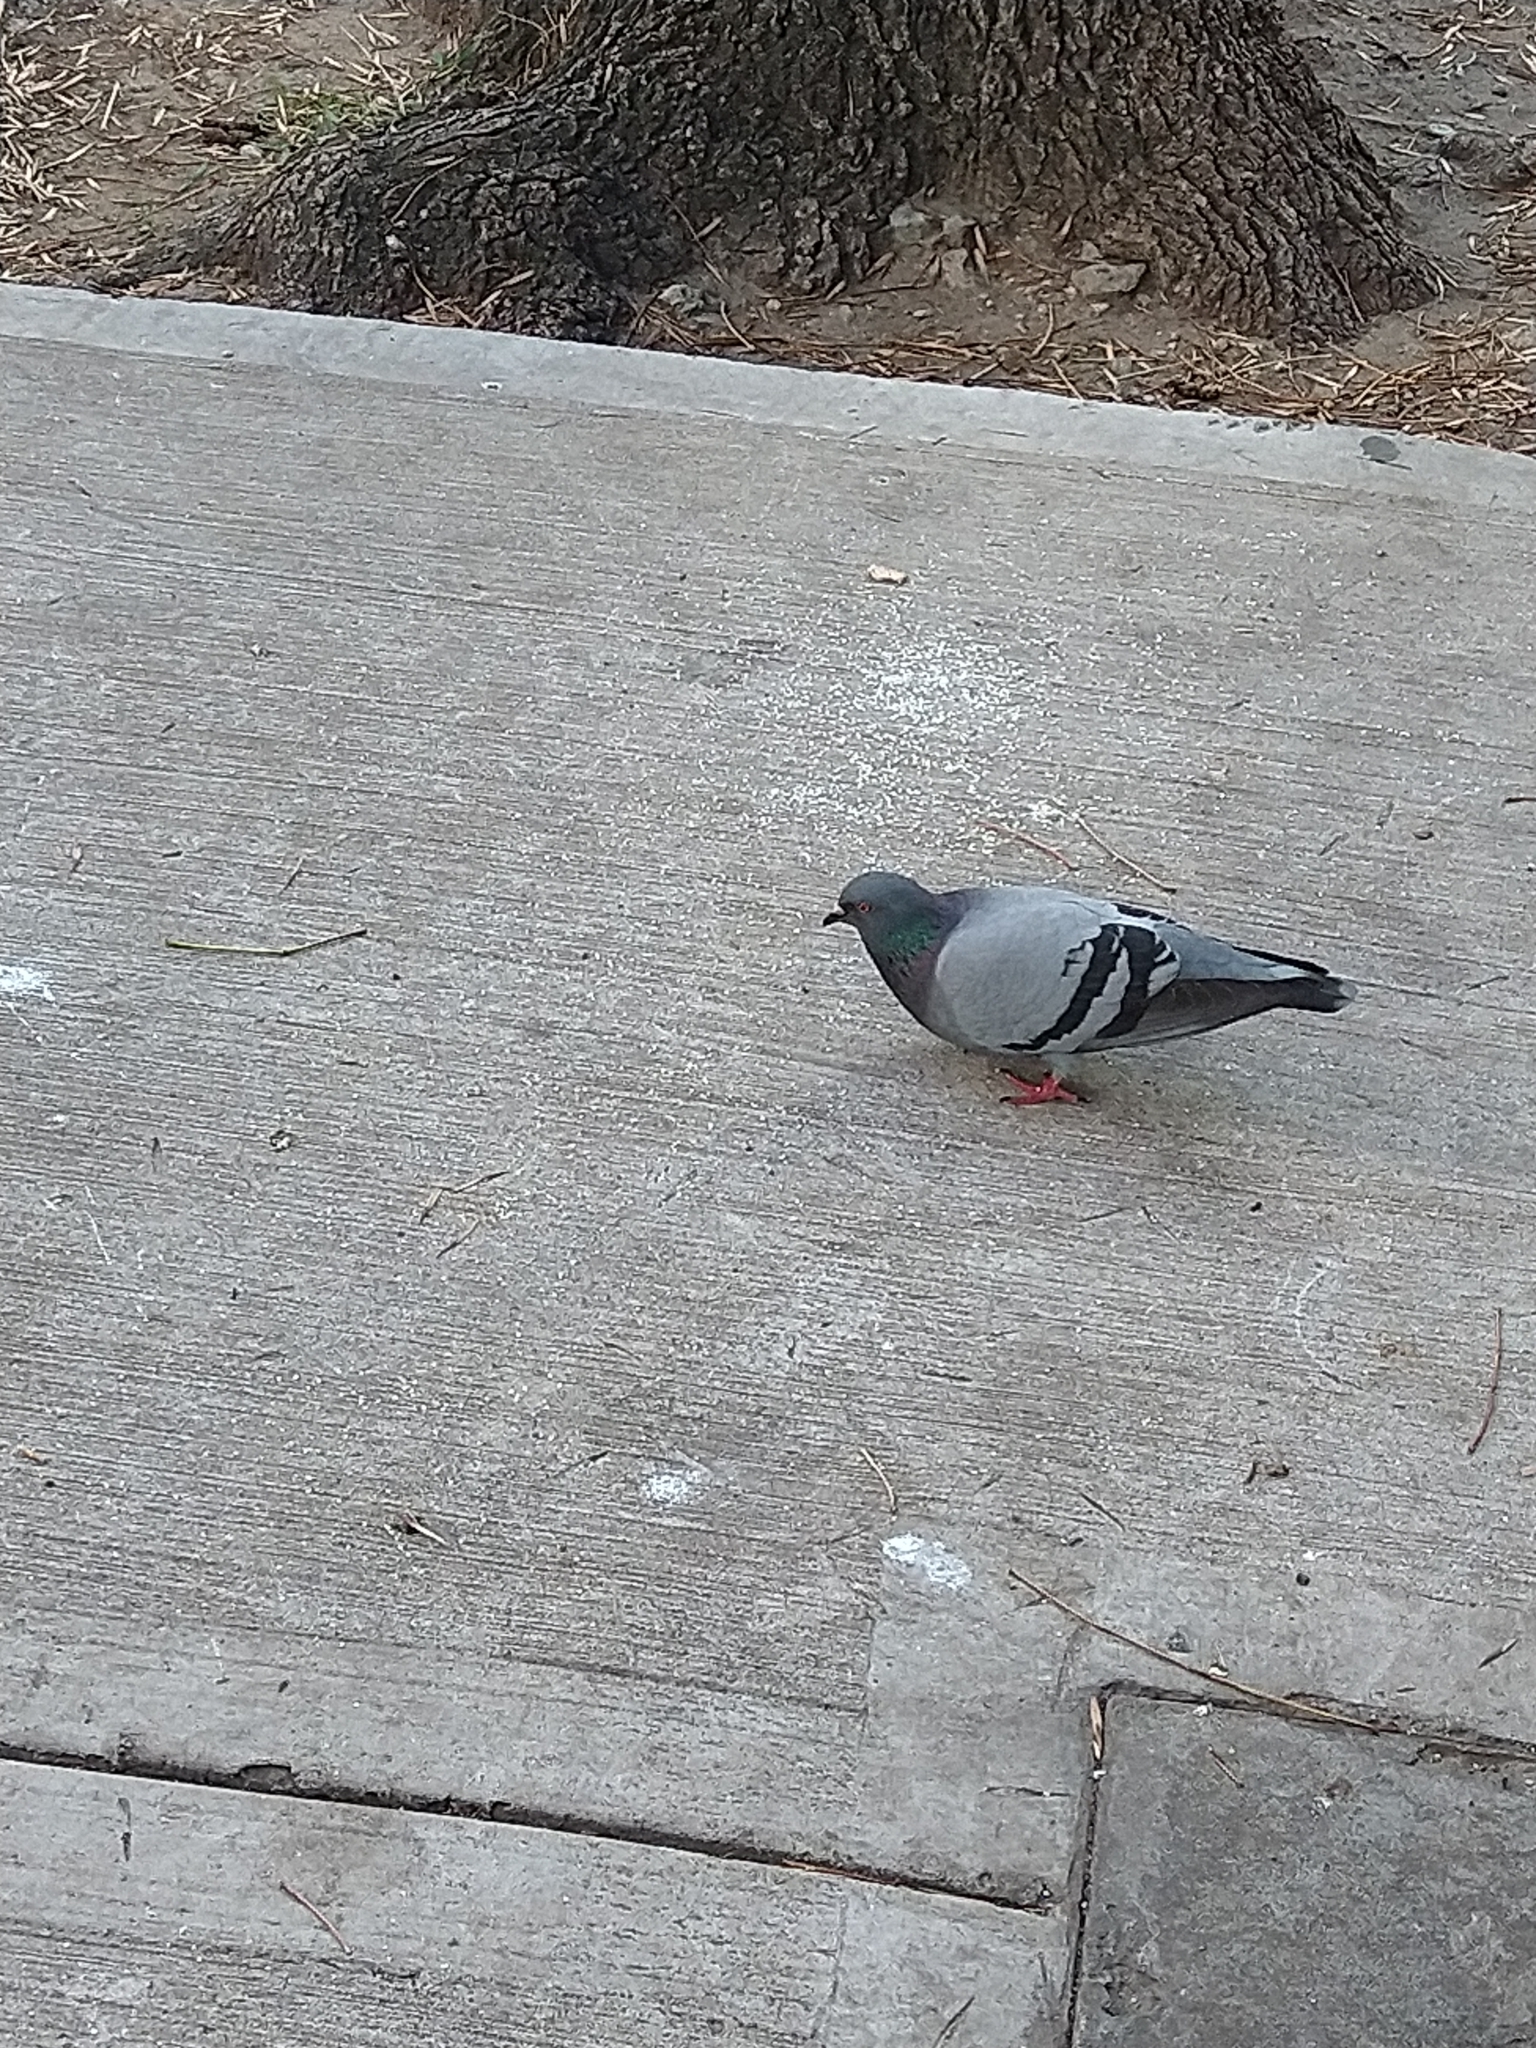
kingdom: Animalia
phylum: Chordata
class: Aves
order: Columbiformes
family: Columbidae
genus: Columba
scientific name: Columba livia
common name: Rock pigeon
